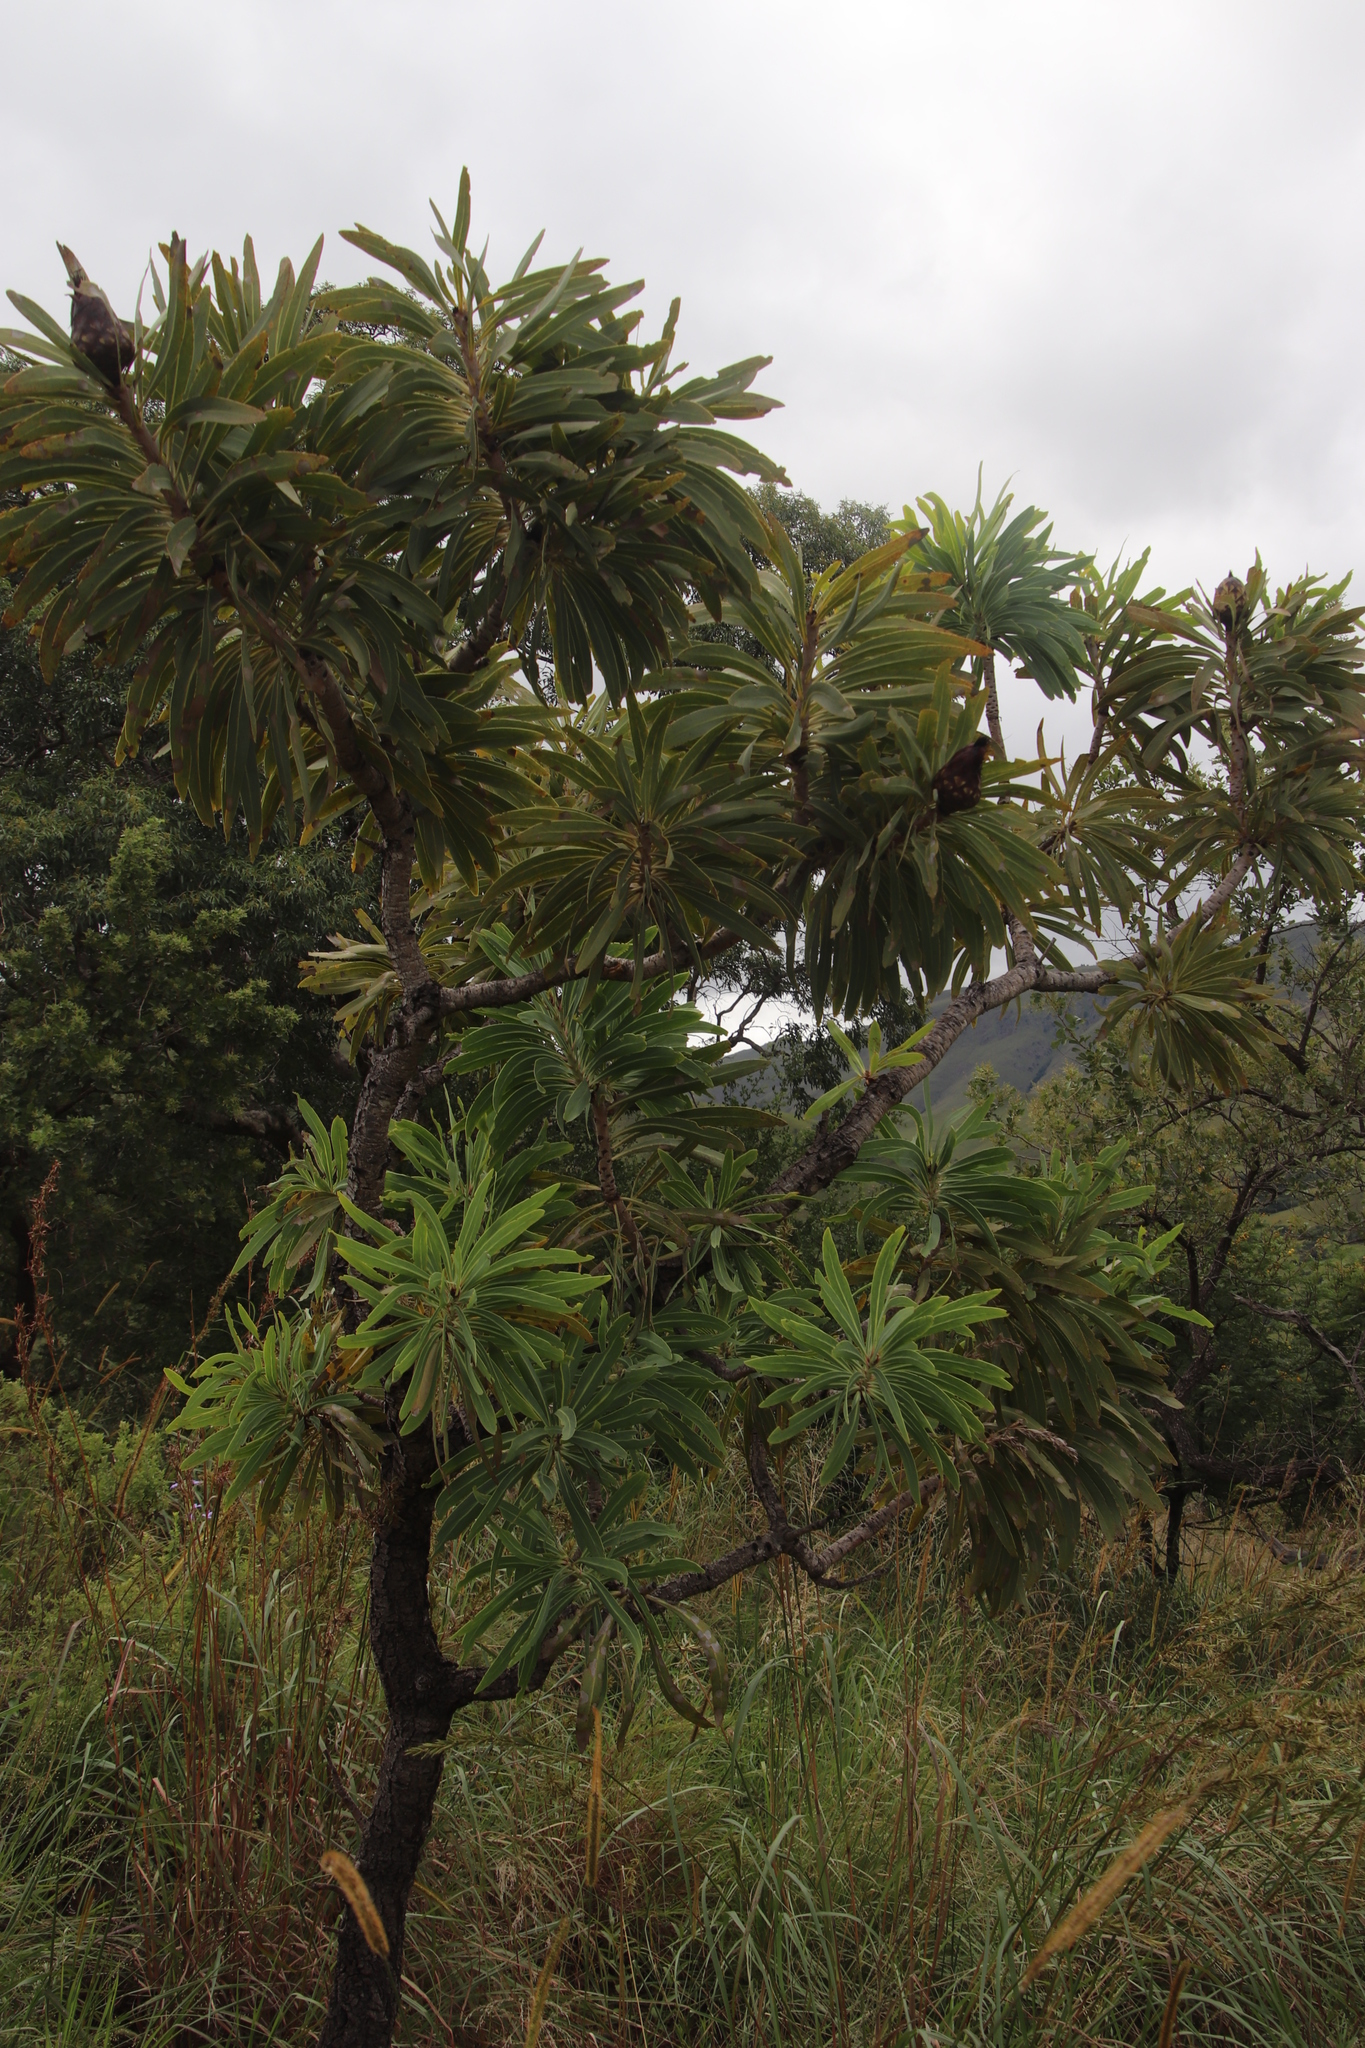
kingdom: Plantae
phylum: Tracheophyta
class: Magnoliopsida
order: Proteales
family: Proteaceae
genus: Protea
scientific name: Protea caffra
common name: Common sugarbush
